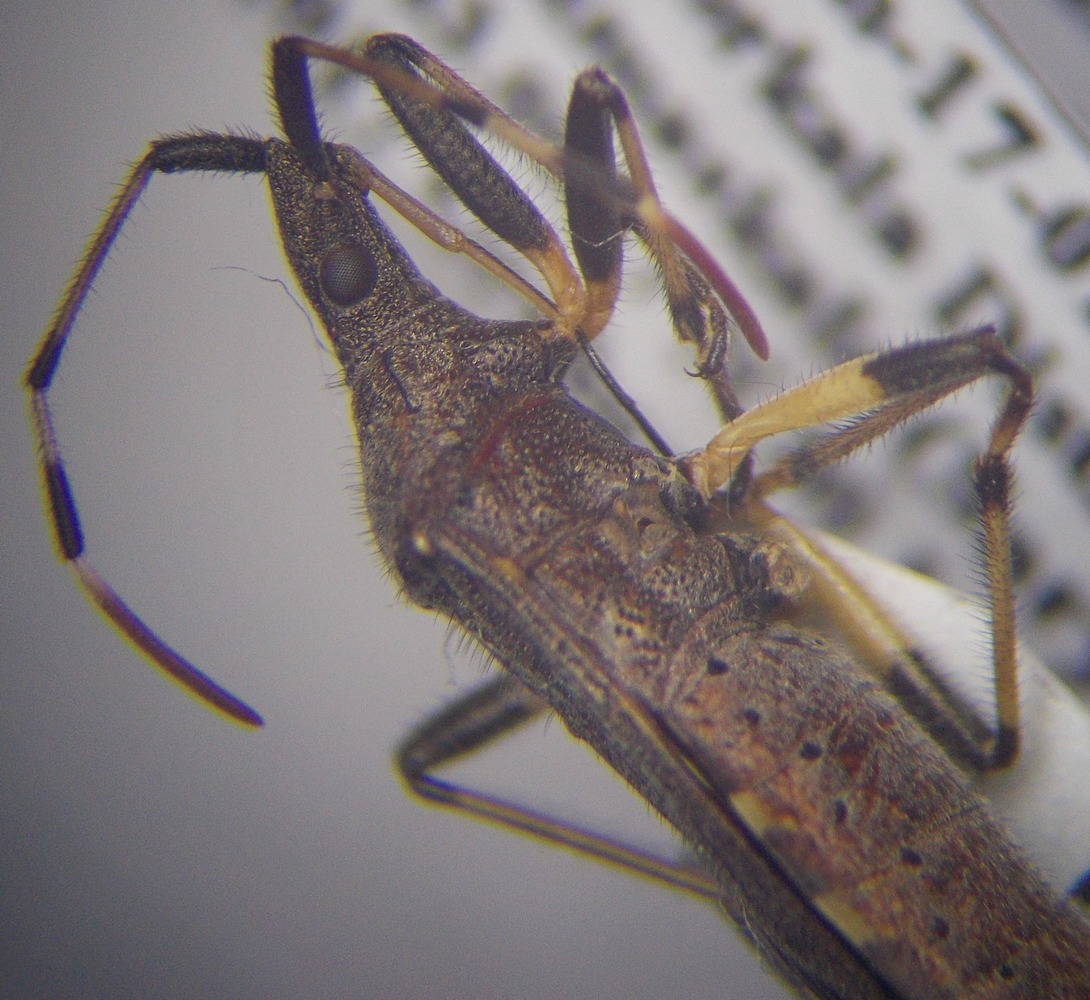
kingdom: Animalia
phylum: Arthropoda
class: Insecta
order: Hemiptera
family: Stenocephalidae
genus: Dicranocephalus
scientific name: Dicranocephalus albipes
